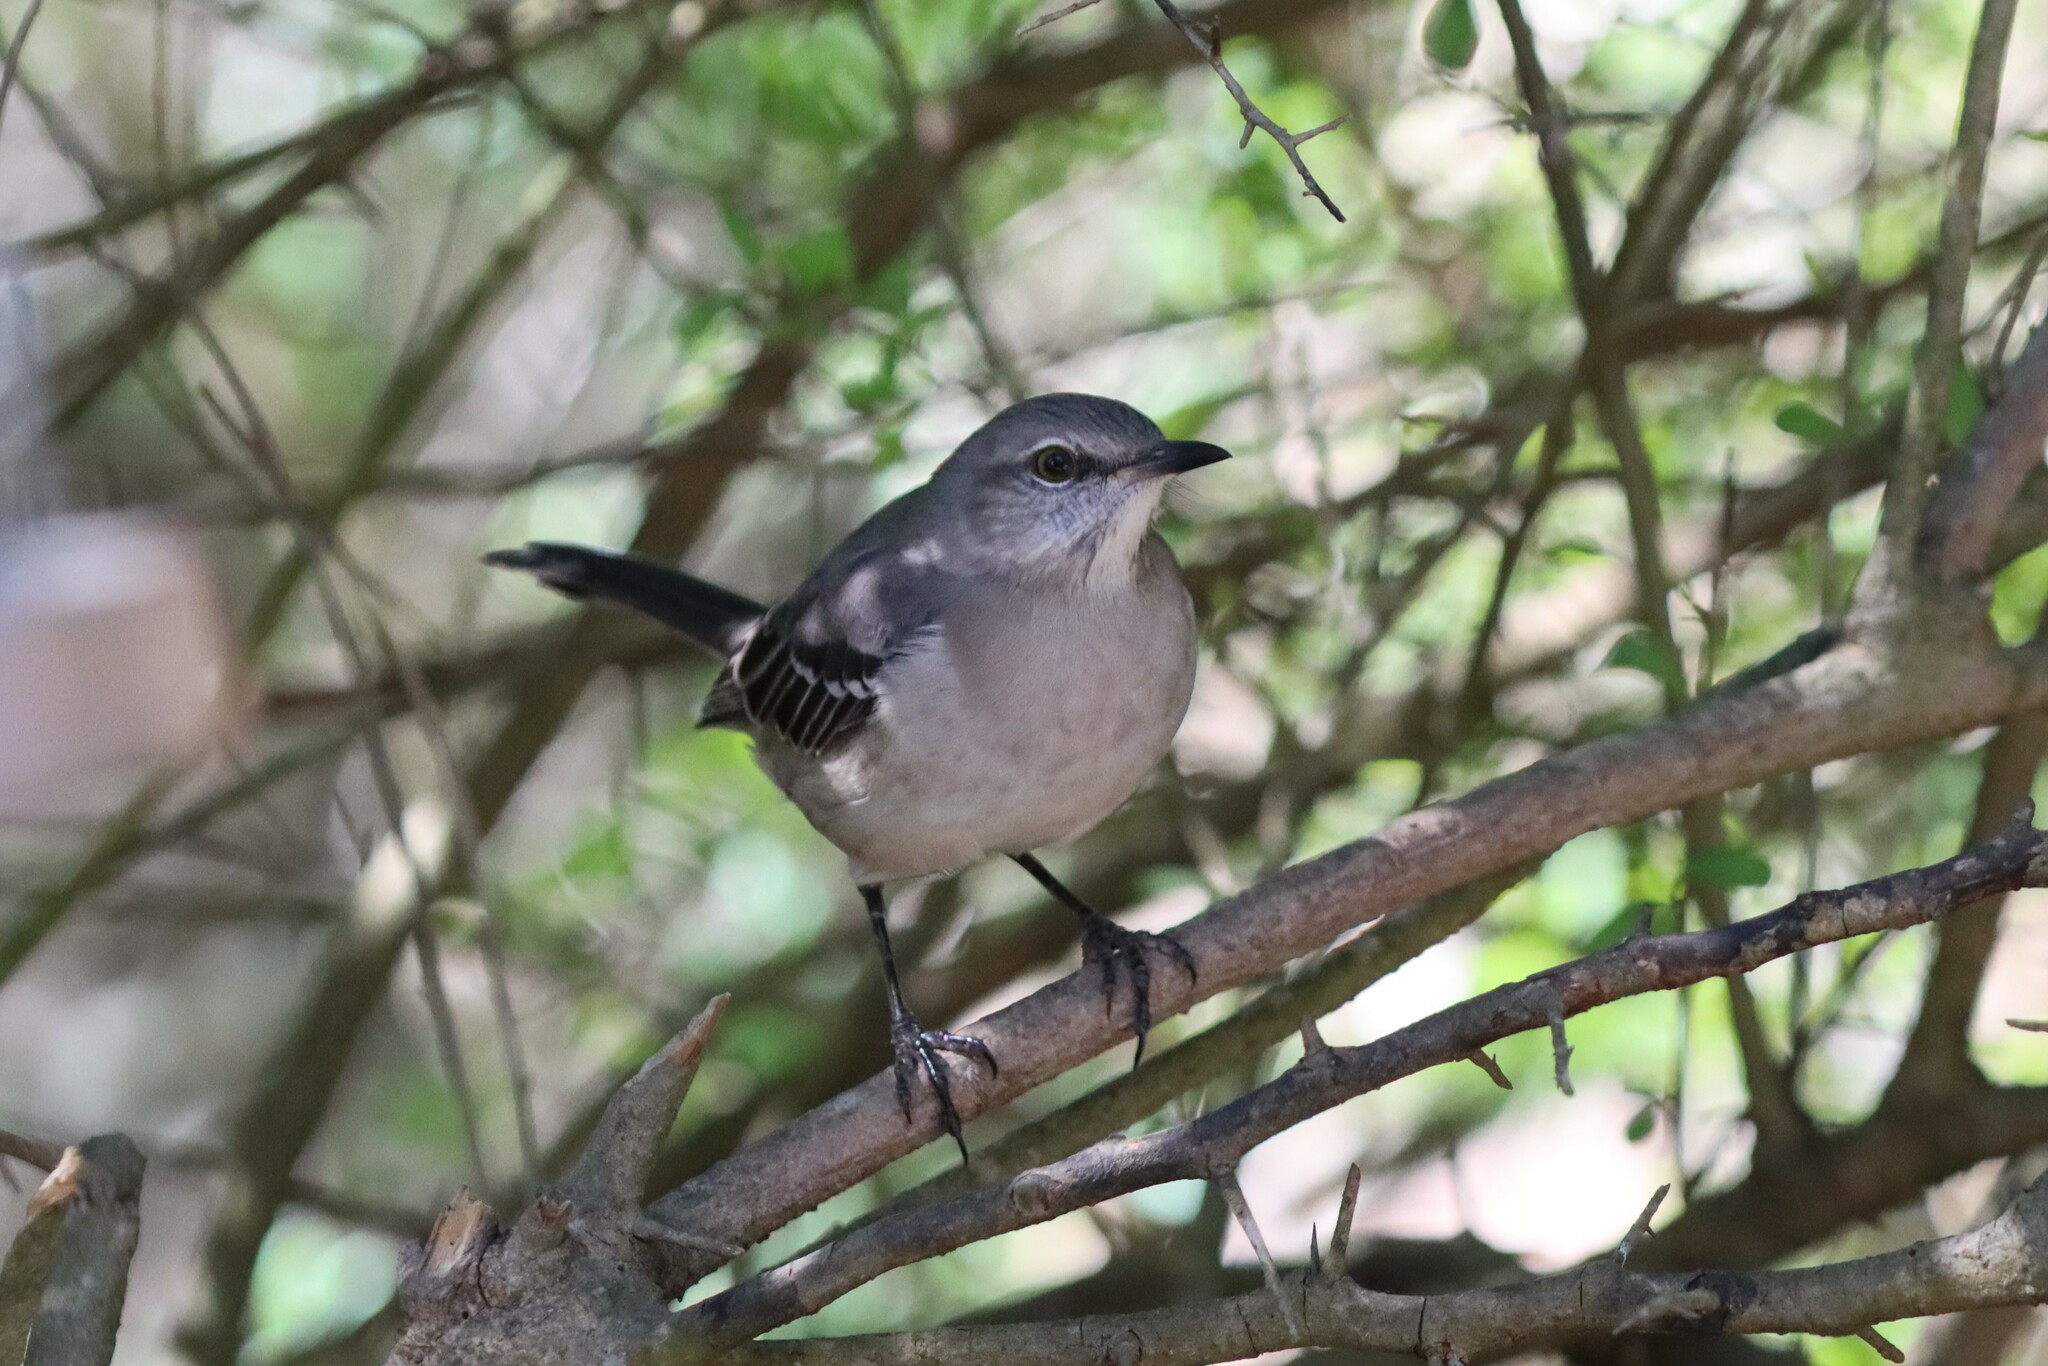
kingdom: Animalia
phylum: Chordata
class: Aves
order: Passeriformes
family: Mimidae
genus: Mimus
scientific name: Mimus polyglottos
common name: Northern mockingbird
